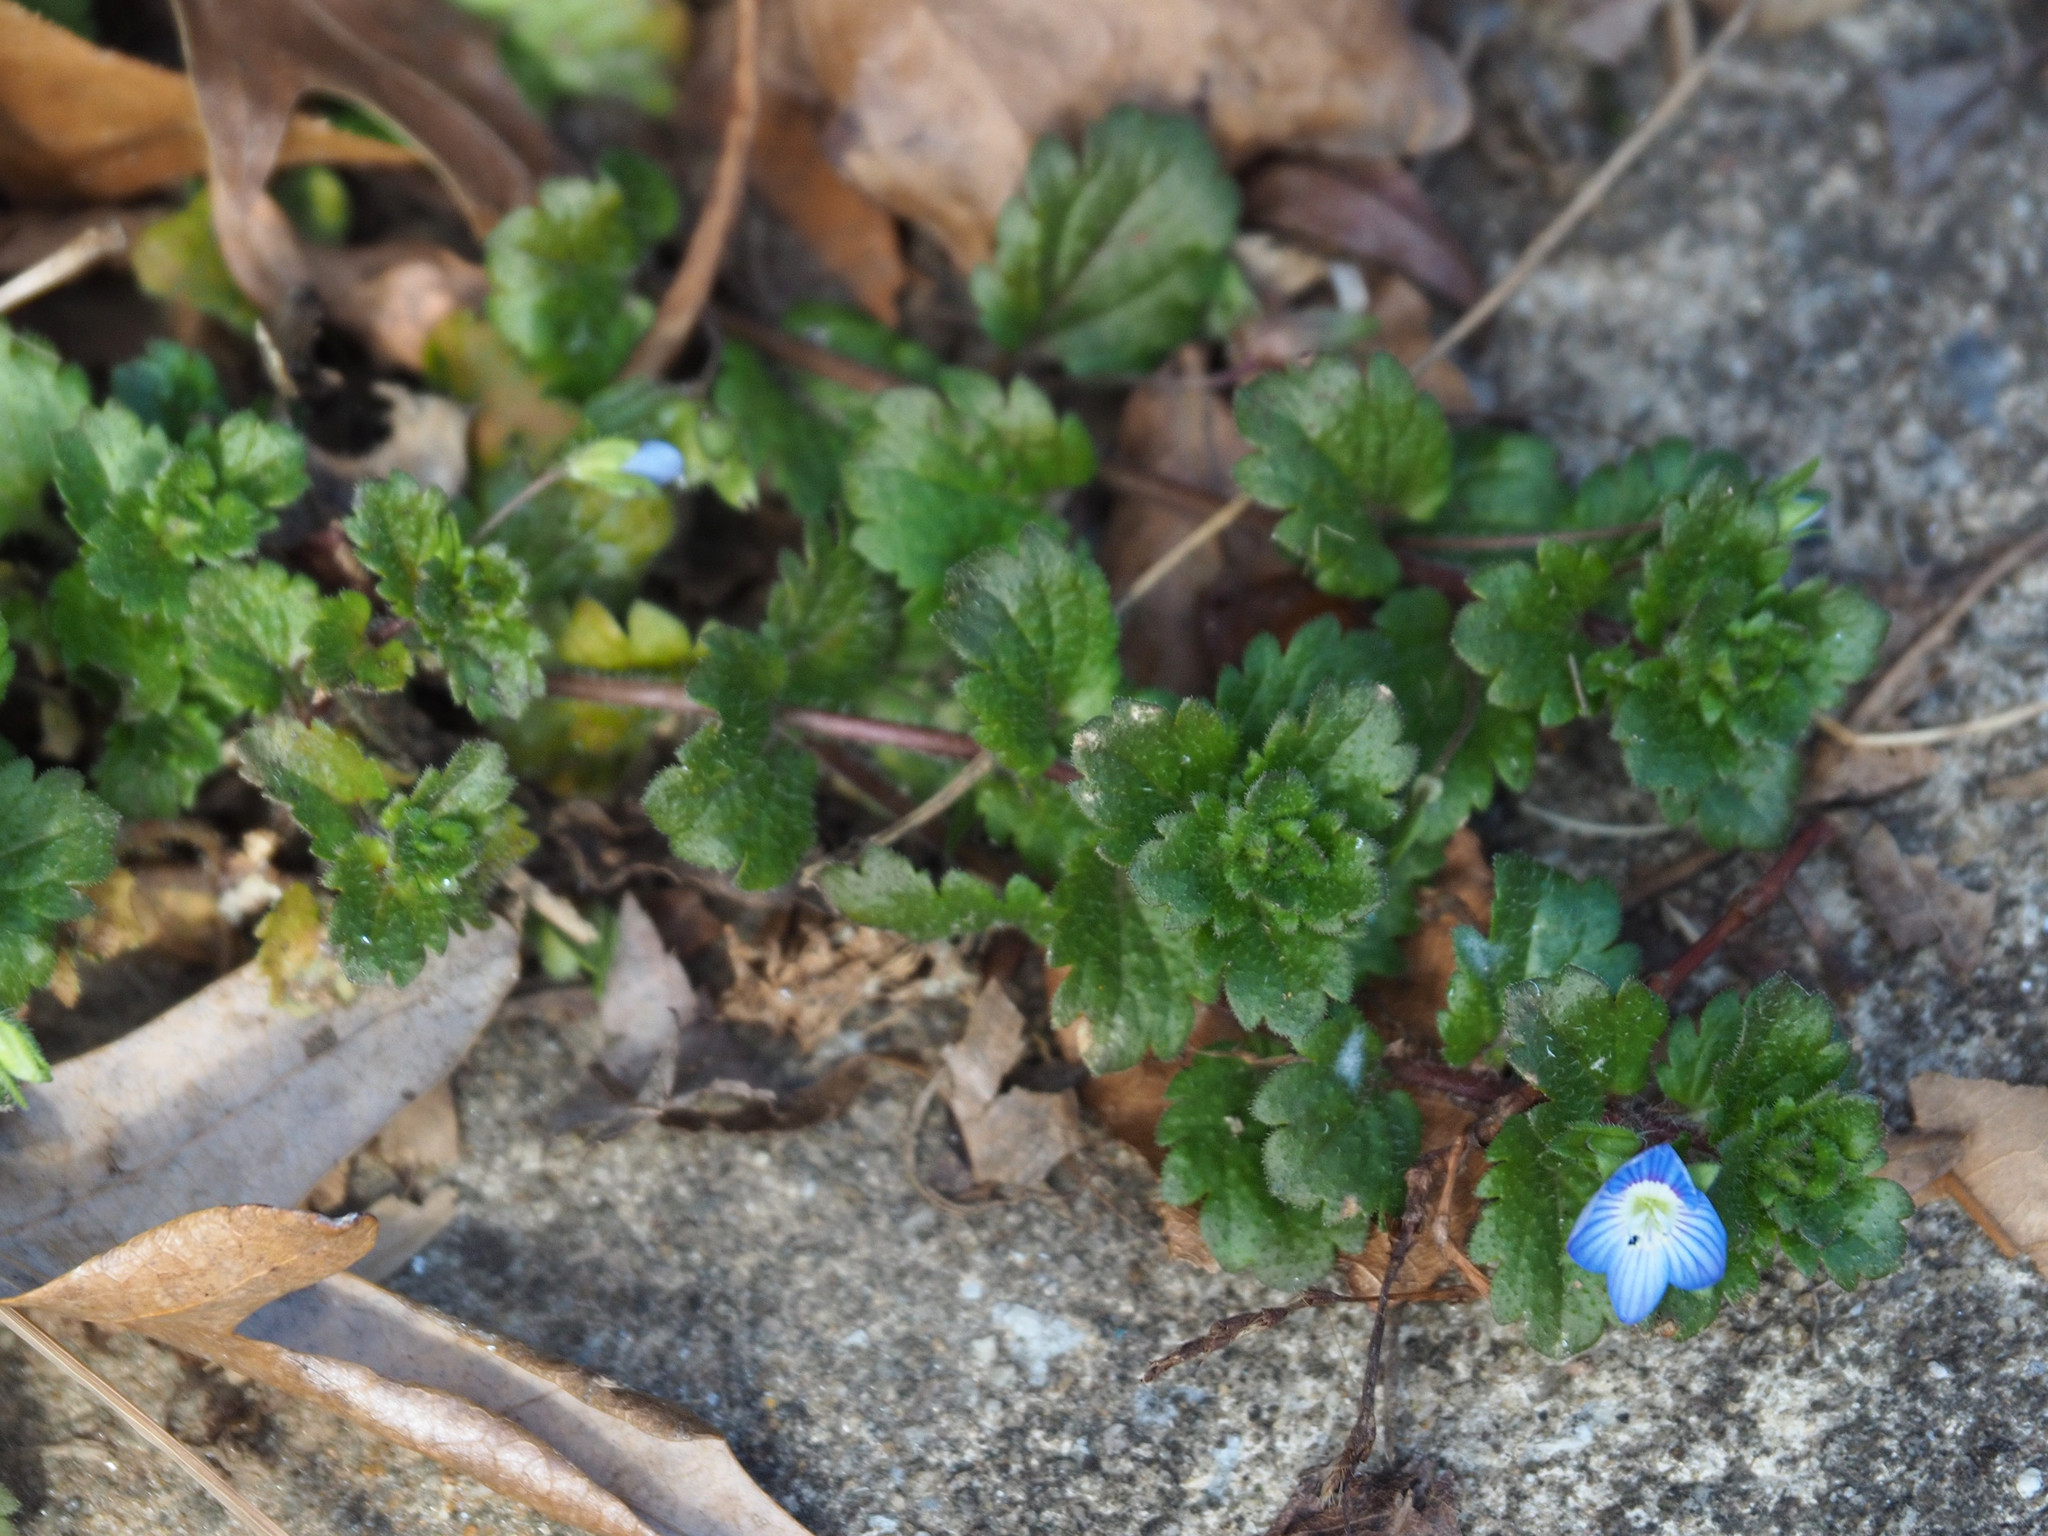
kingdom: Plantae
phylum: Tracheophyta
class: Magnoliopsida
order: Lamiales
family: Plantaginaceae
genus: Veronica
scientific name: Veronica persica
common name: Common field-speedwell
